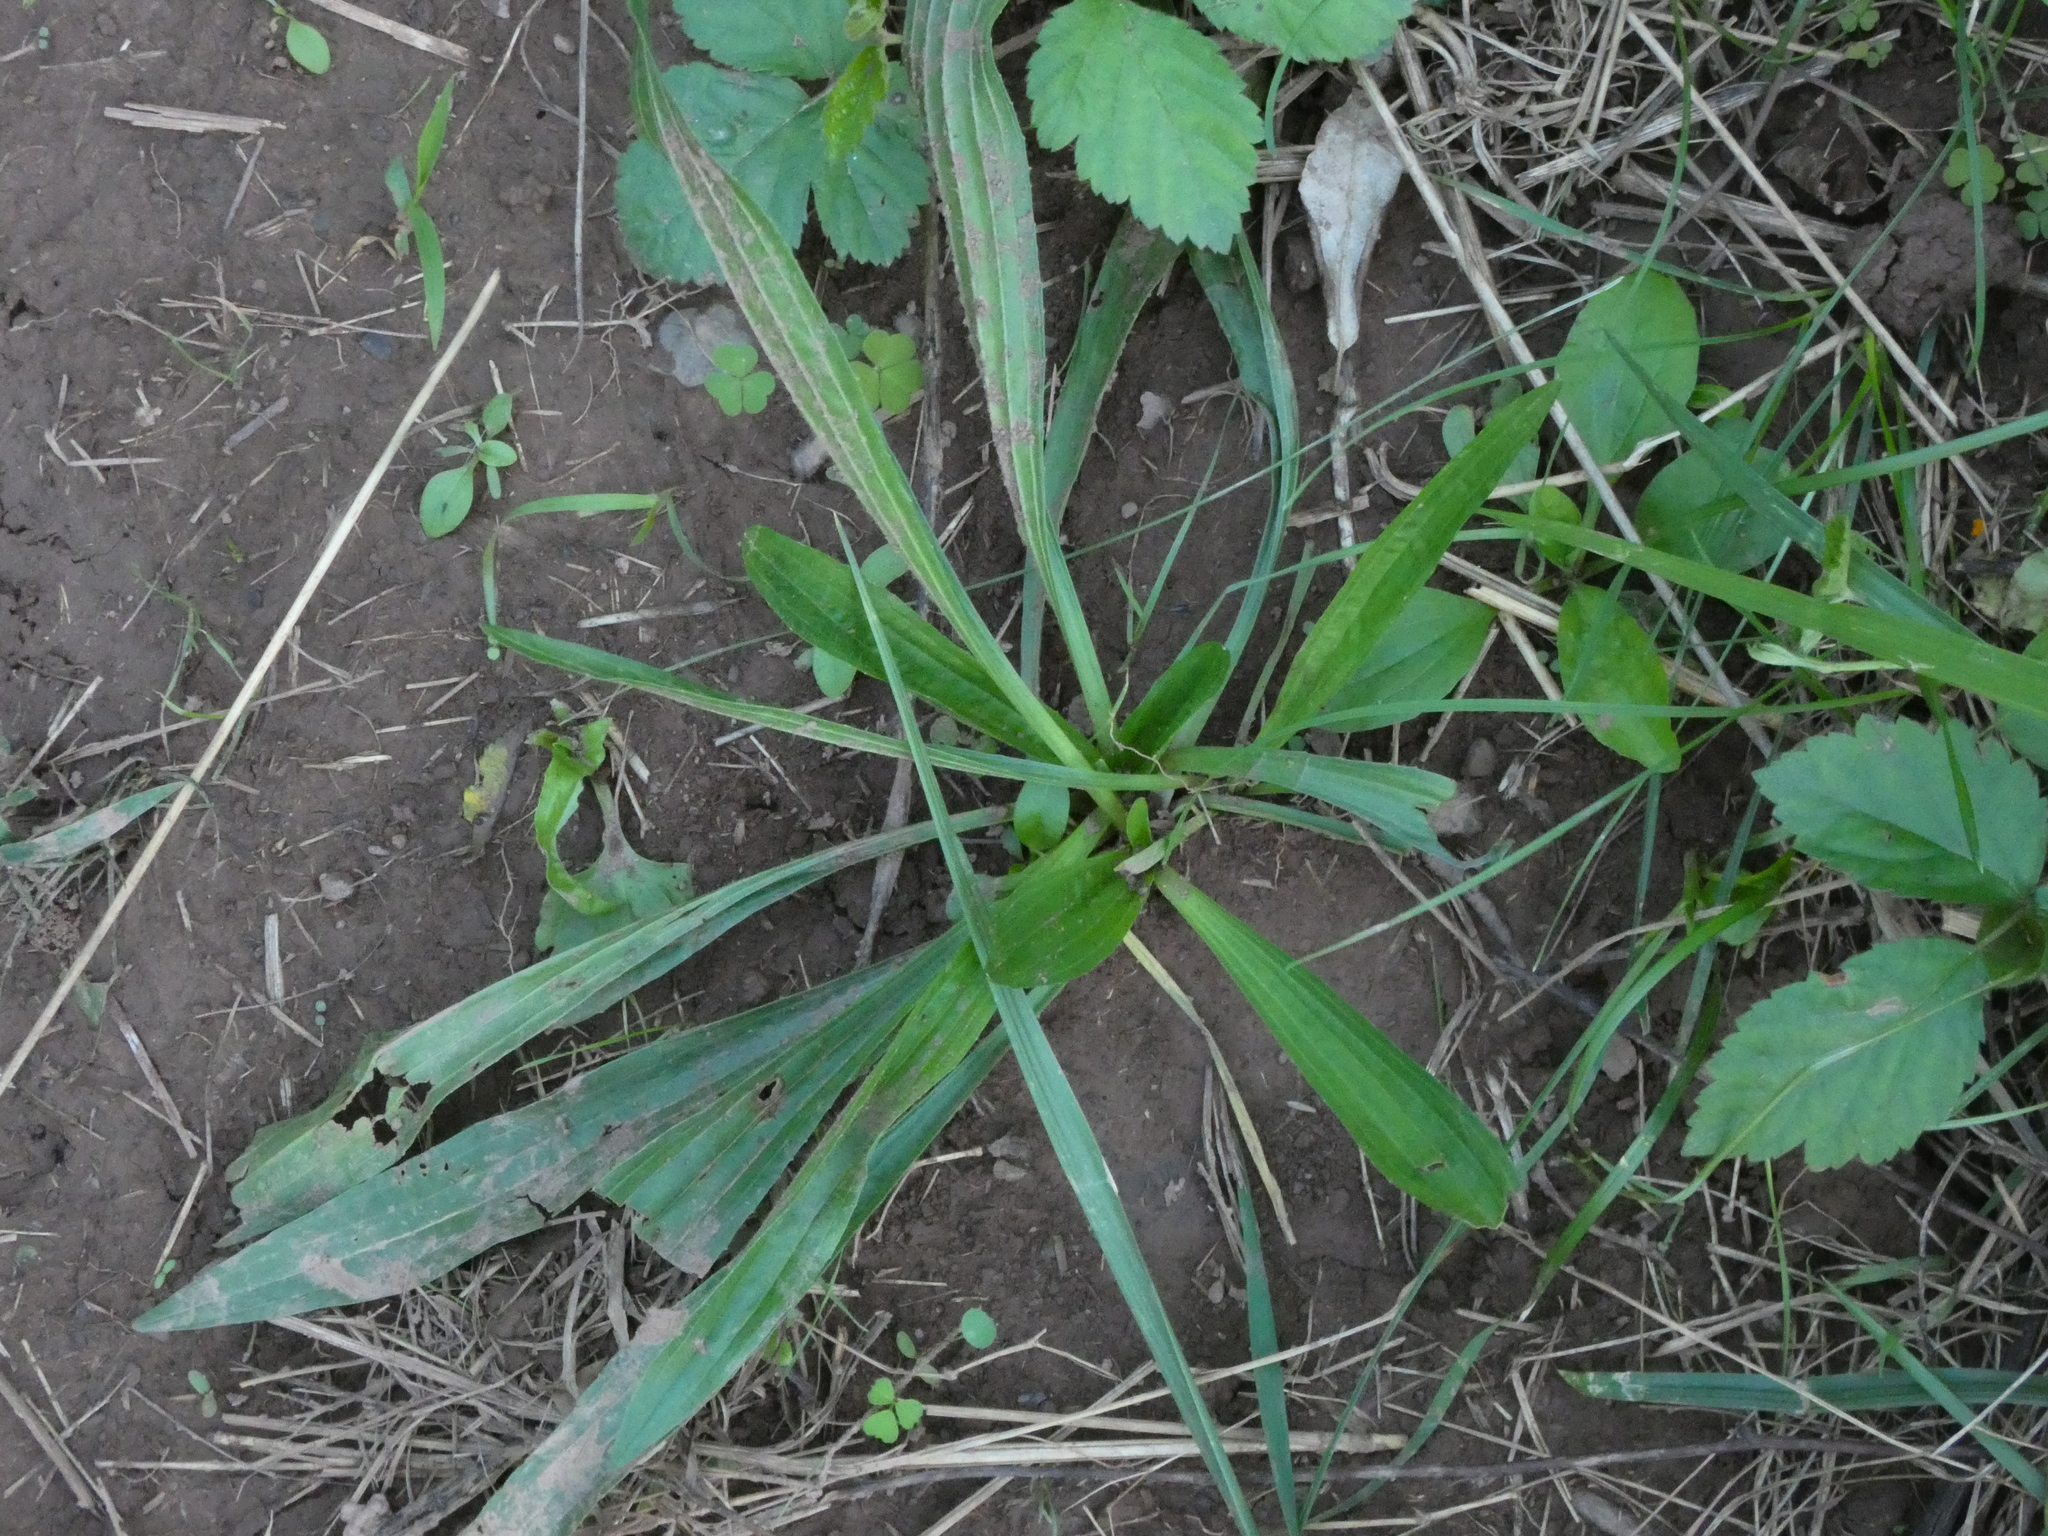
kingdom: Plantae
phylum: Tracheophyta
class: Magnoliopsida
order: Lamiales
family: Plantaginaceae
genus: Plantago
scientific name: Plantago lanceolata
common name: Ribwort plantain
